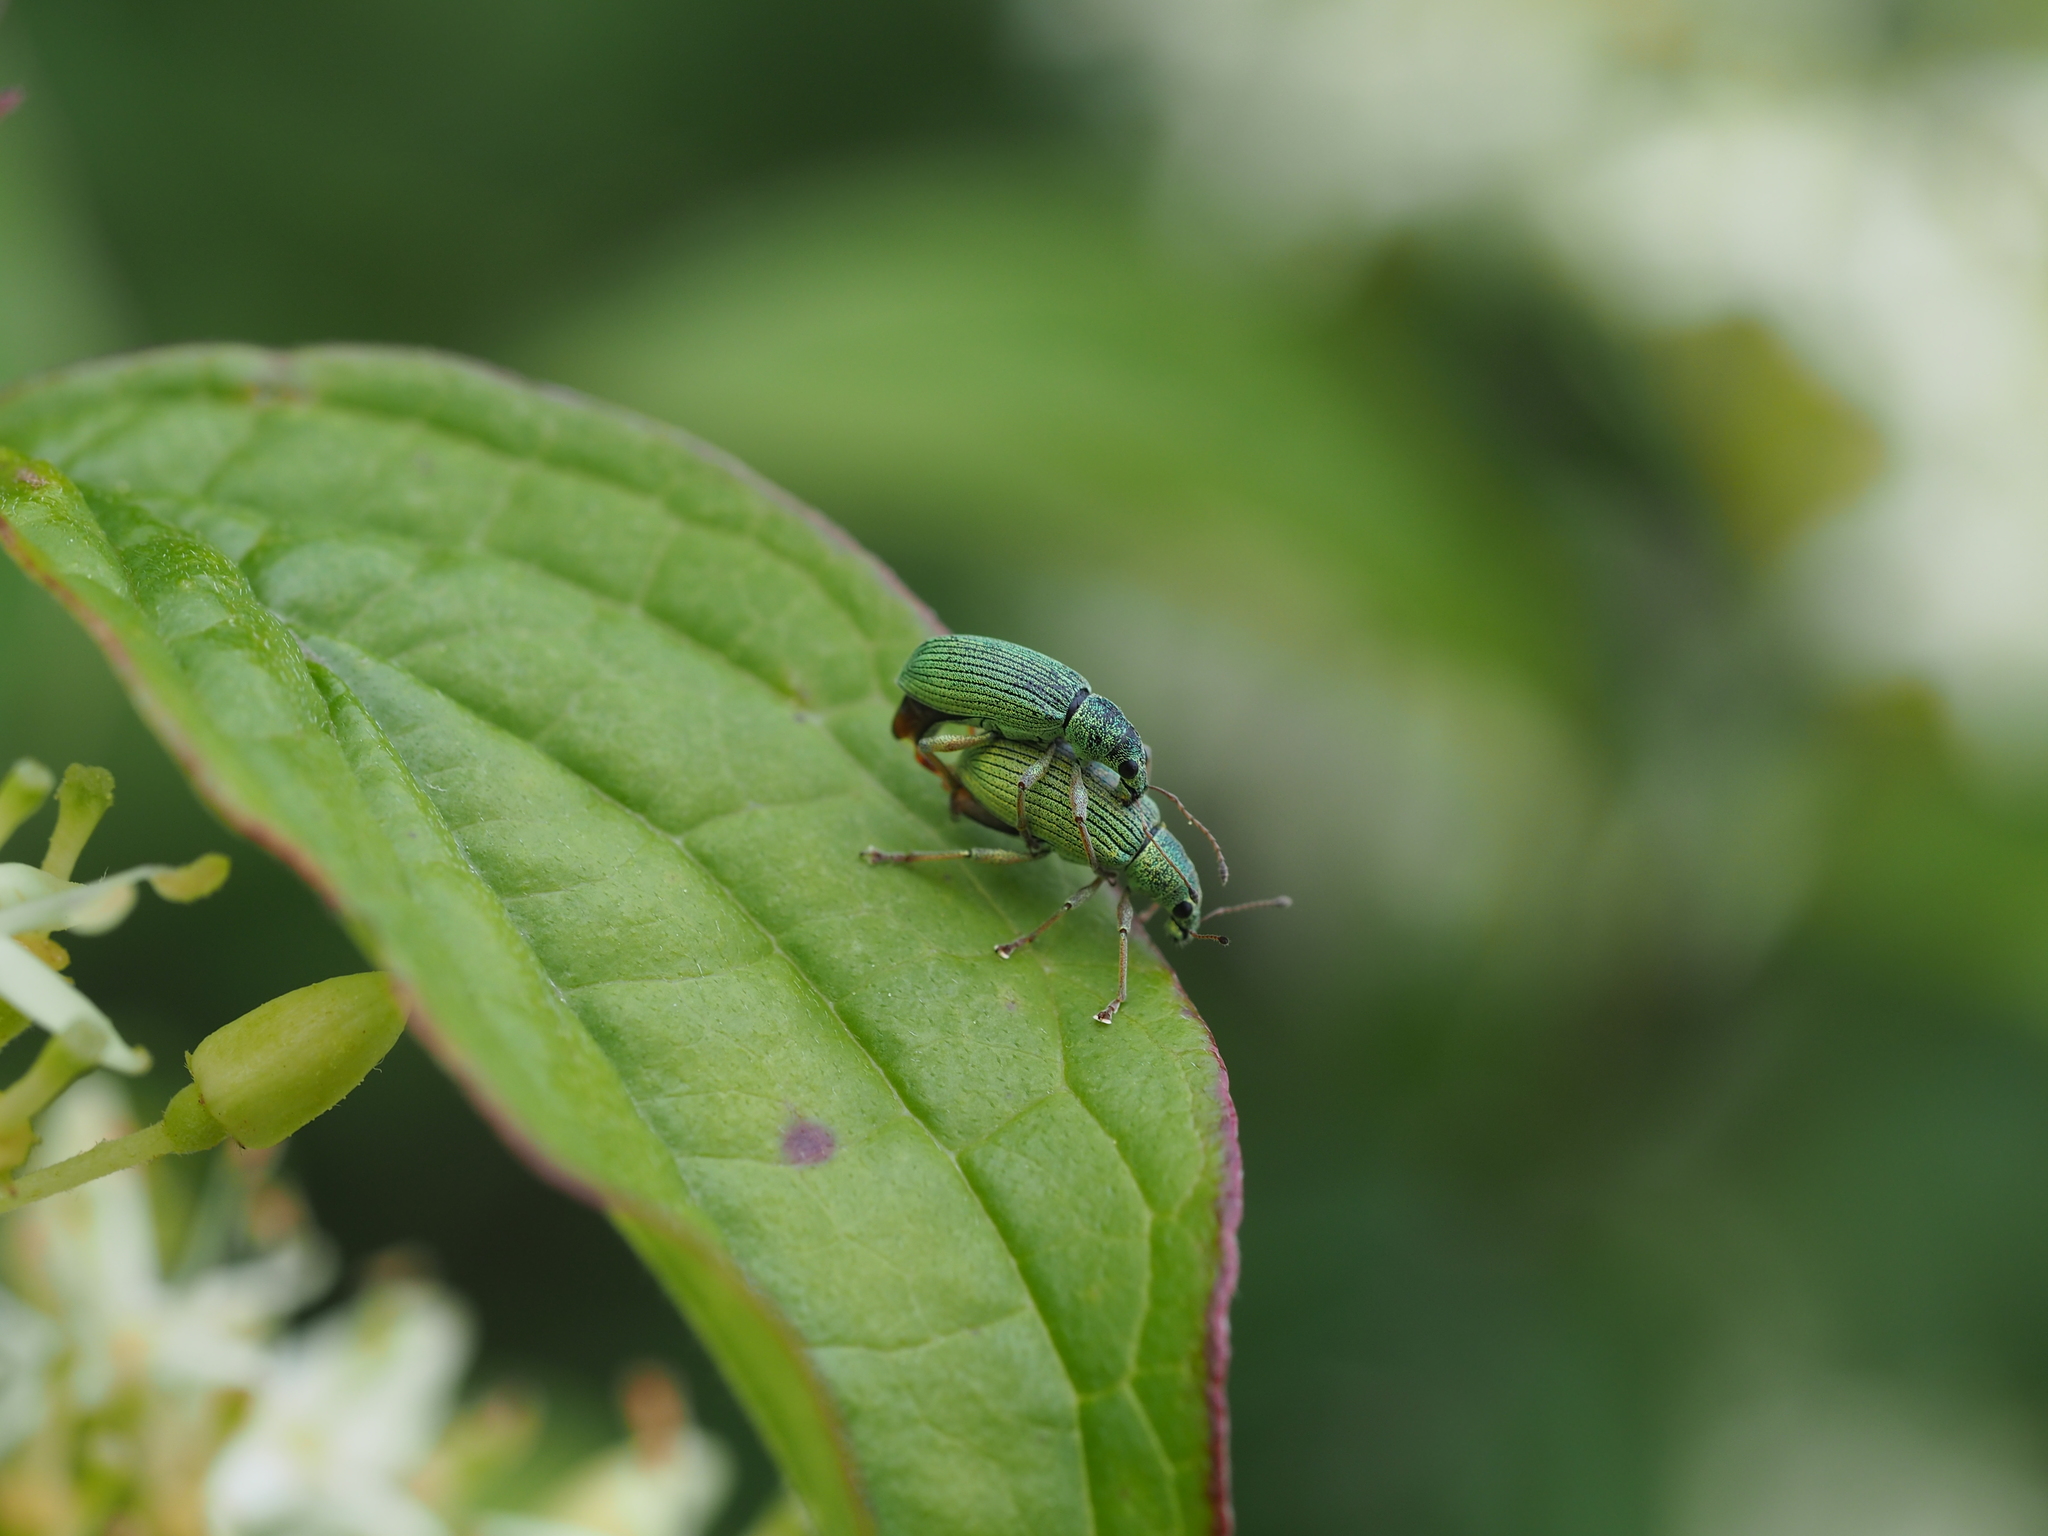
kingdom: Animalia
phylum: Arthropoda
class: Insecta
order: Coleoptera
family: Curculionidae
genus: Polydrusus
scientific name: Polydrusus formosus
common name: Weevil
